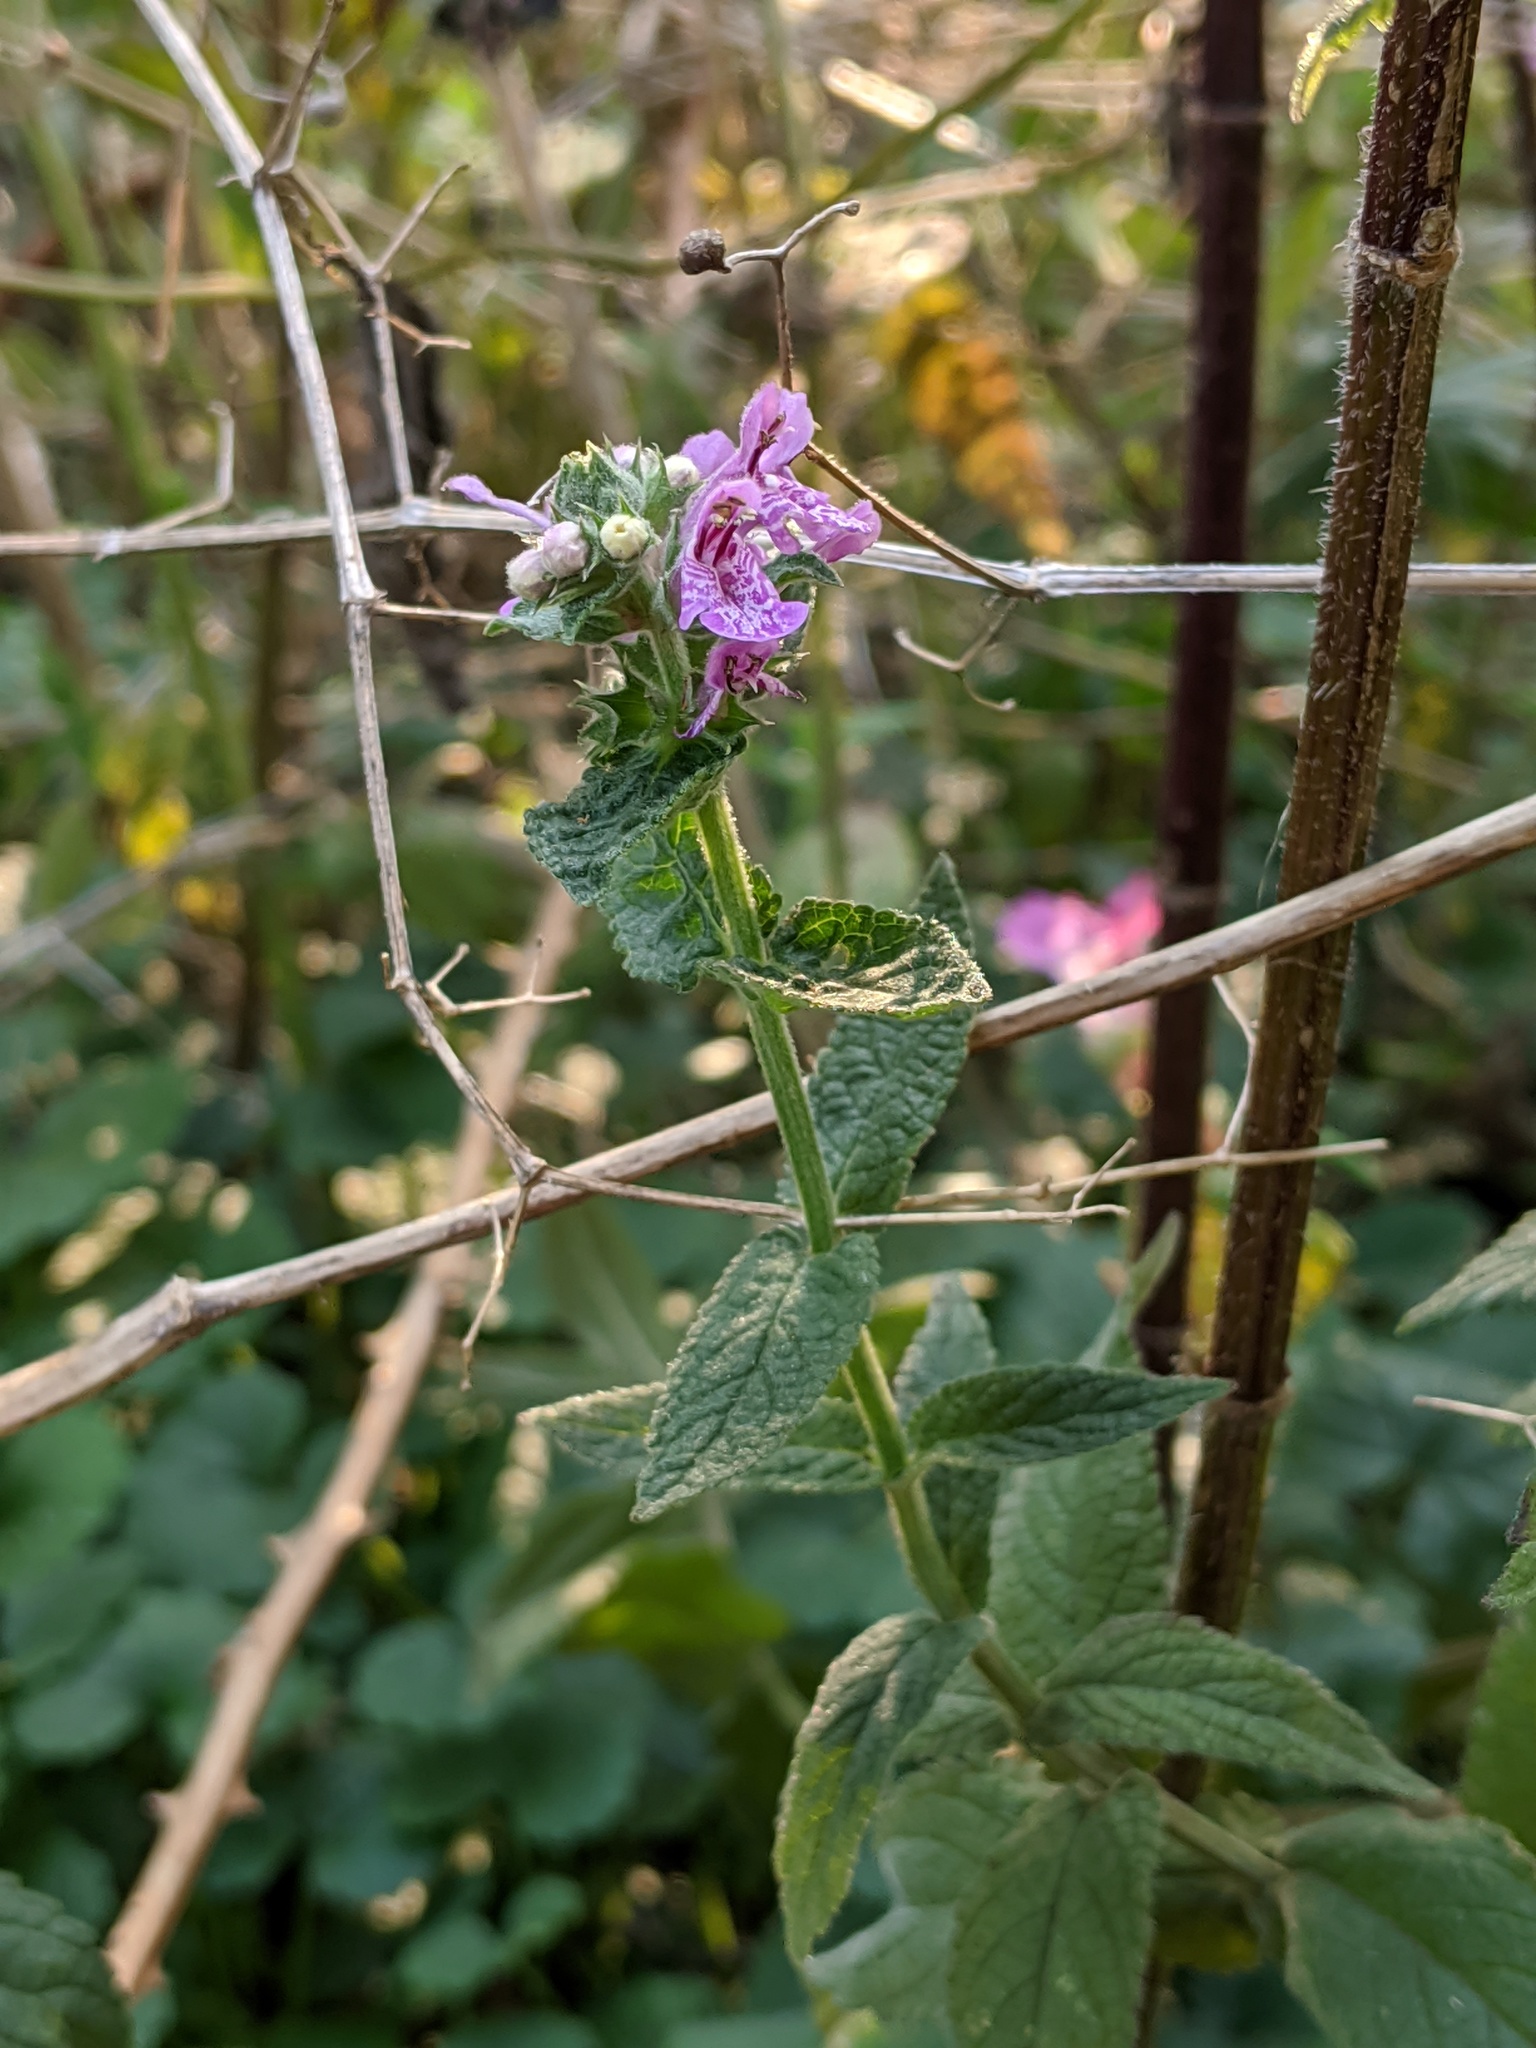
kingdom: Plantae
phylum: Tracheophyta
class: Magnoliopsida
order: Lamiales
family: Lamiaceae
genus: Stachys
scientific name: Stachys palustris
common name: Marsh woundwort
